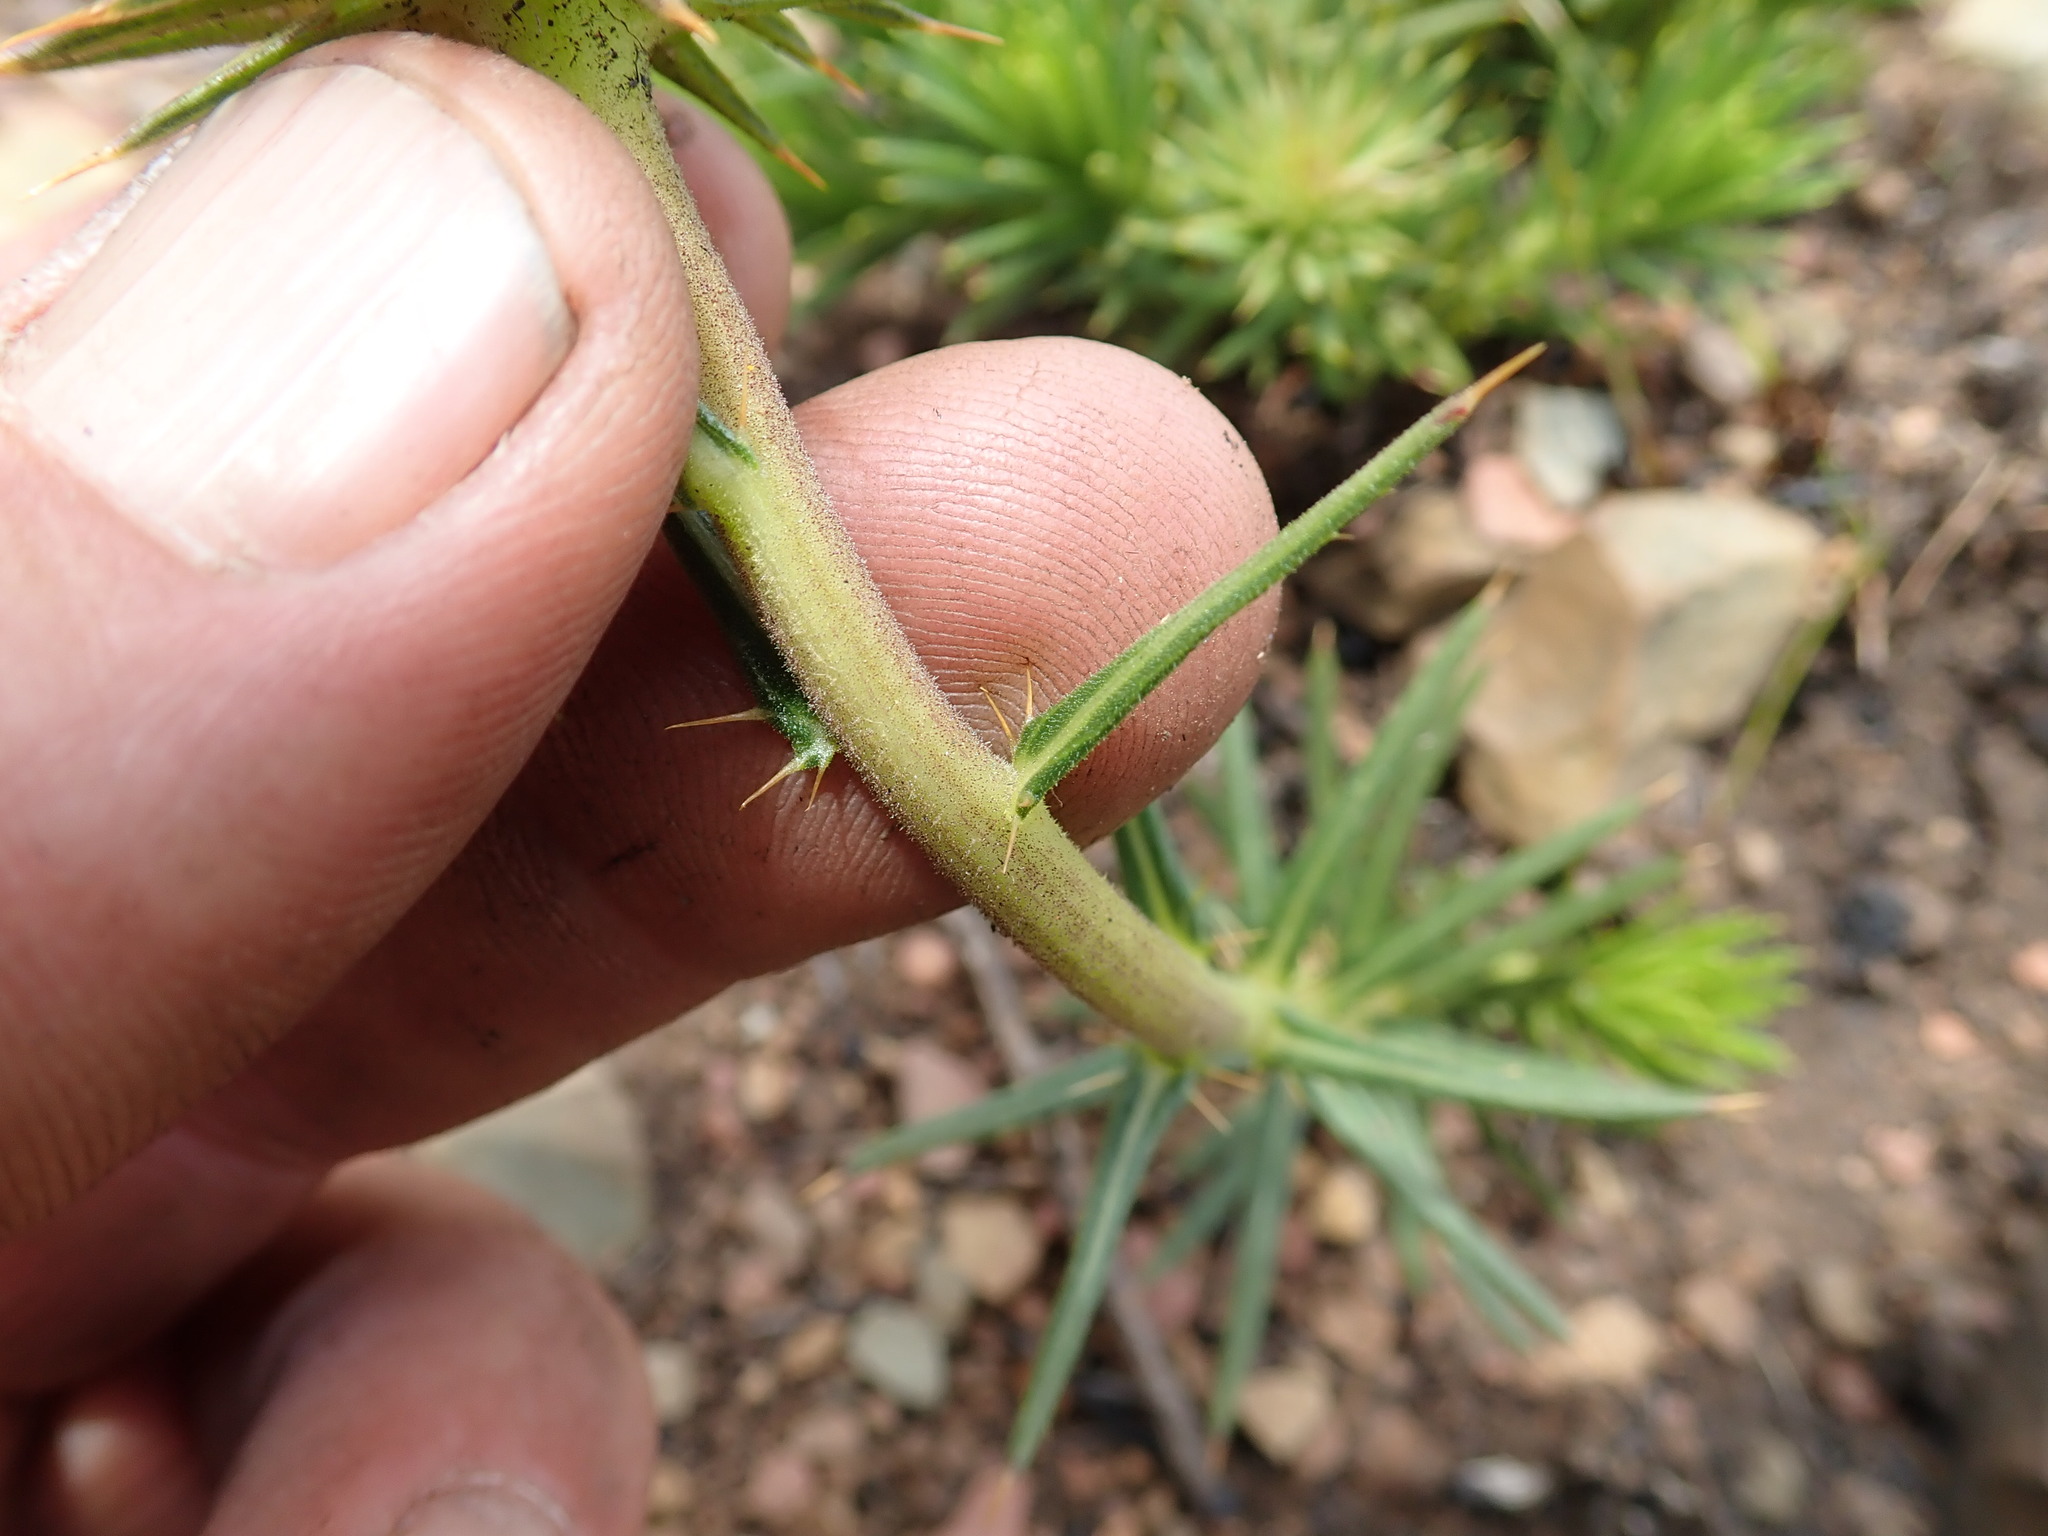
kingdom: Plantae
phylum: Tracheophyta
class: Magnoliopsida
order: Asterales
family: Asteraceae
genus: Berkheya
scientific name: Berkheya subulata
